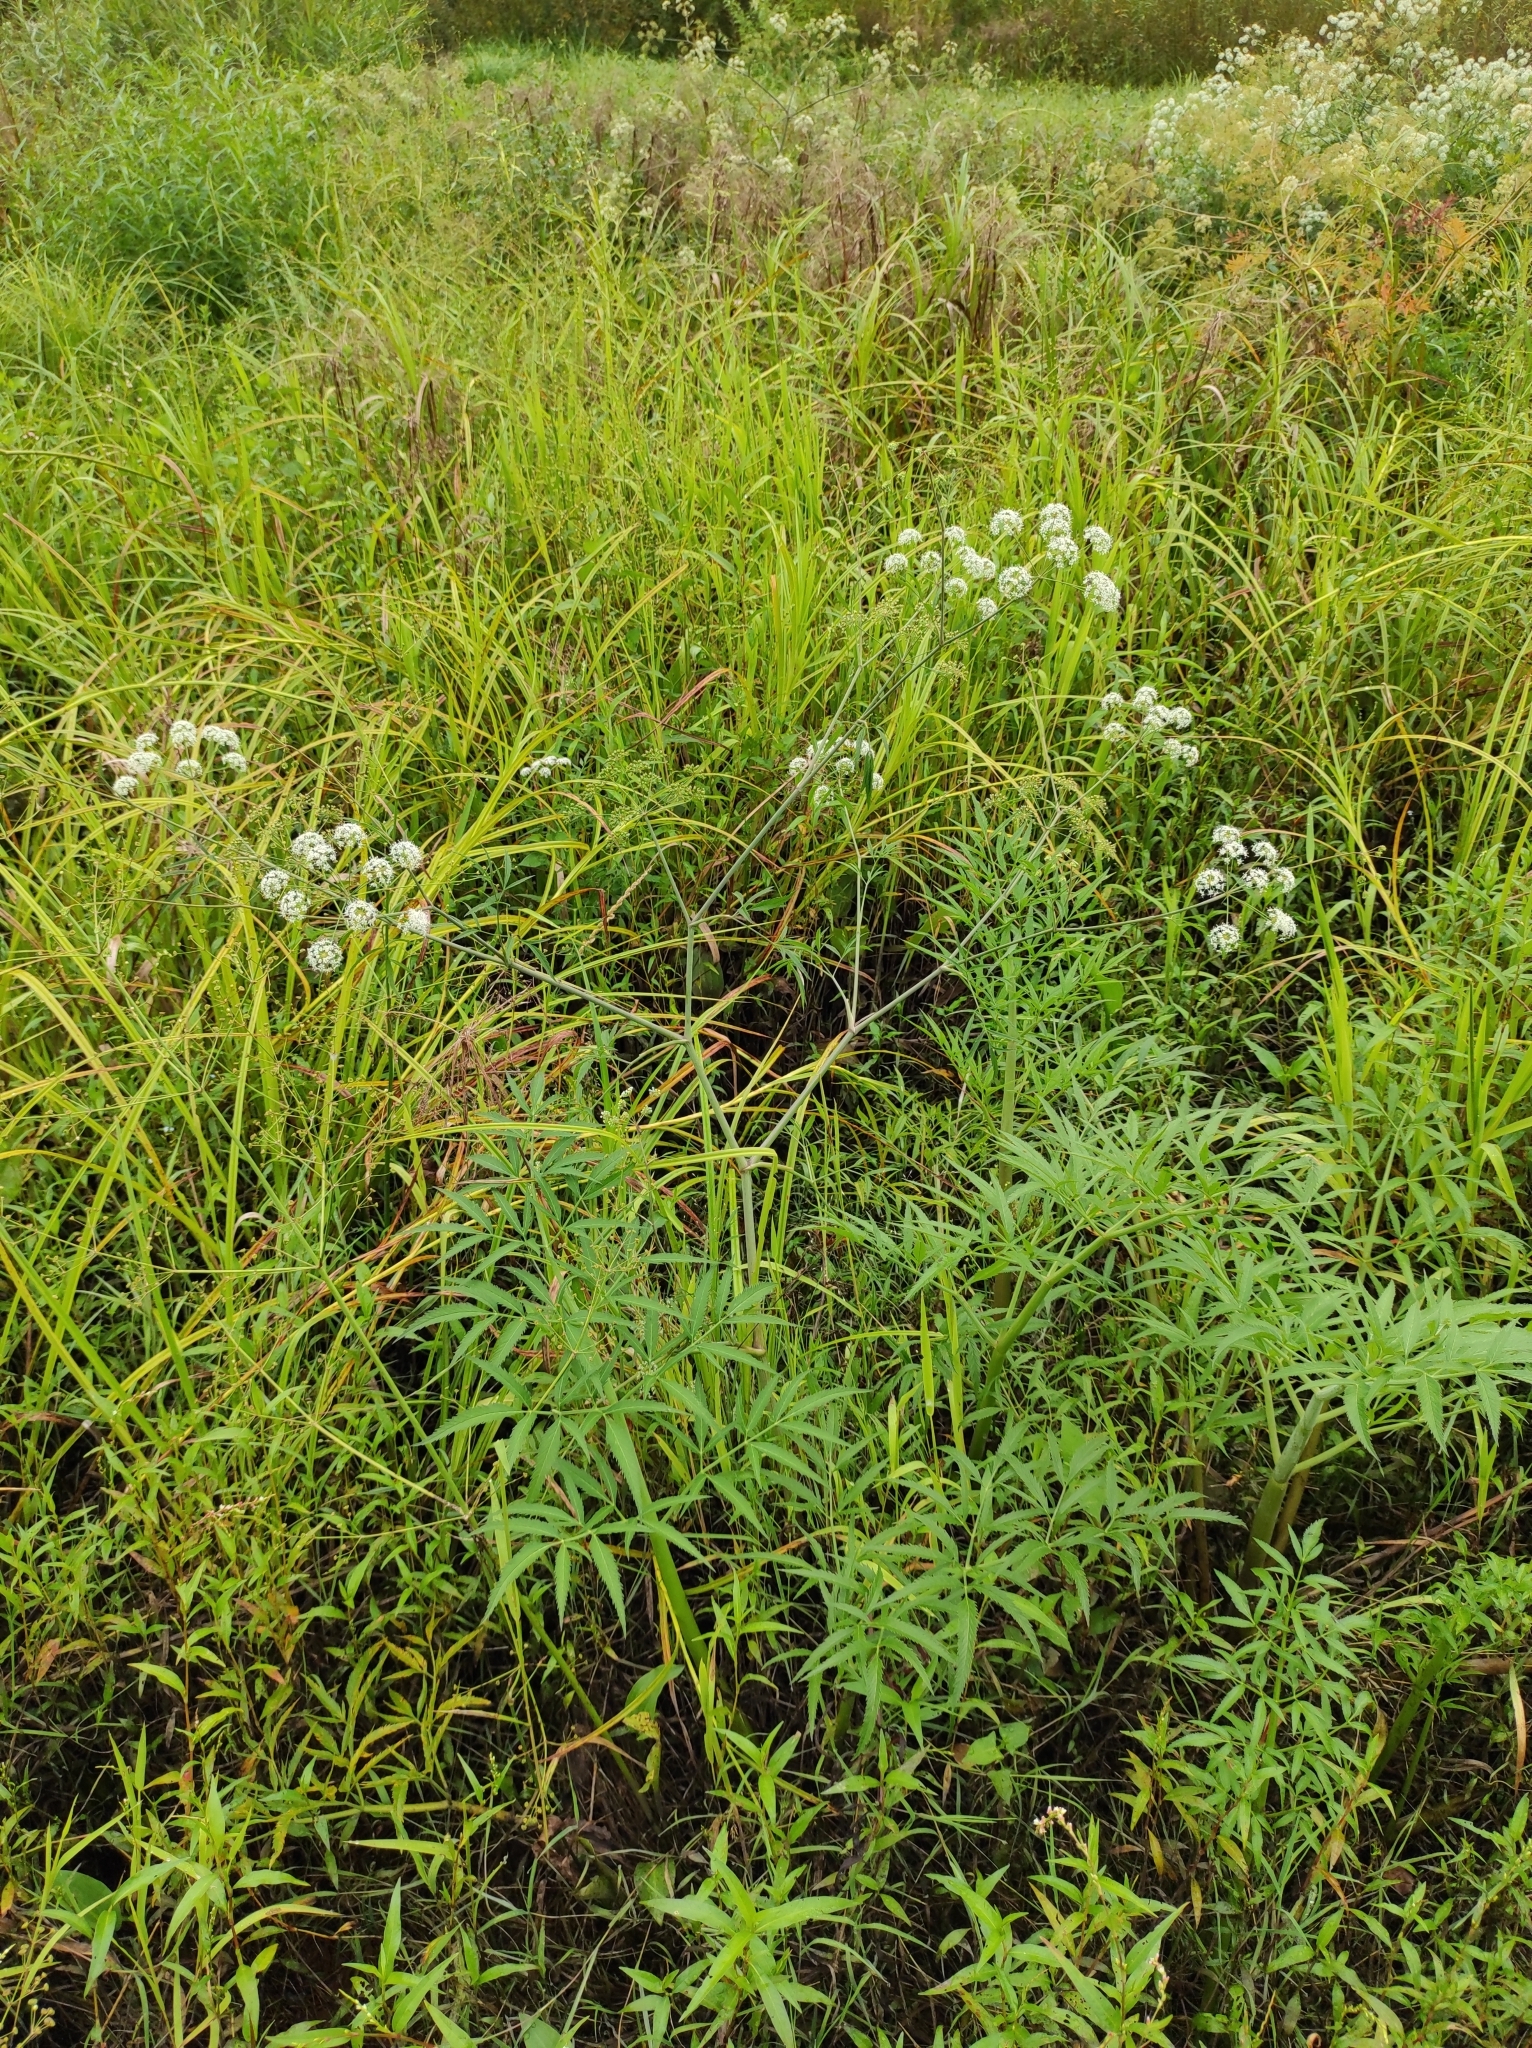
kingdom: Plantae
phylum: Tracheophyta
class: Magnoliopsida
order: Apiales
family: Apiaceae
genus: Cicuta
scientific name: Cicuta virosa
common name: Cowbane
